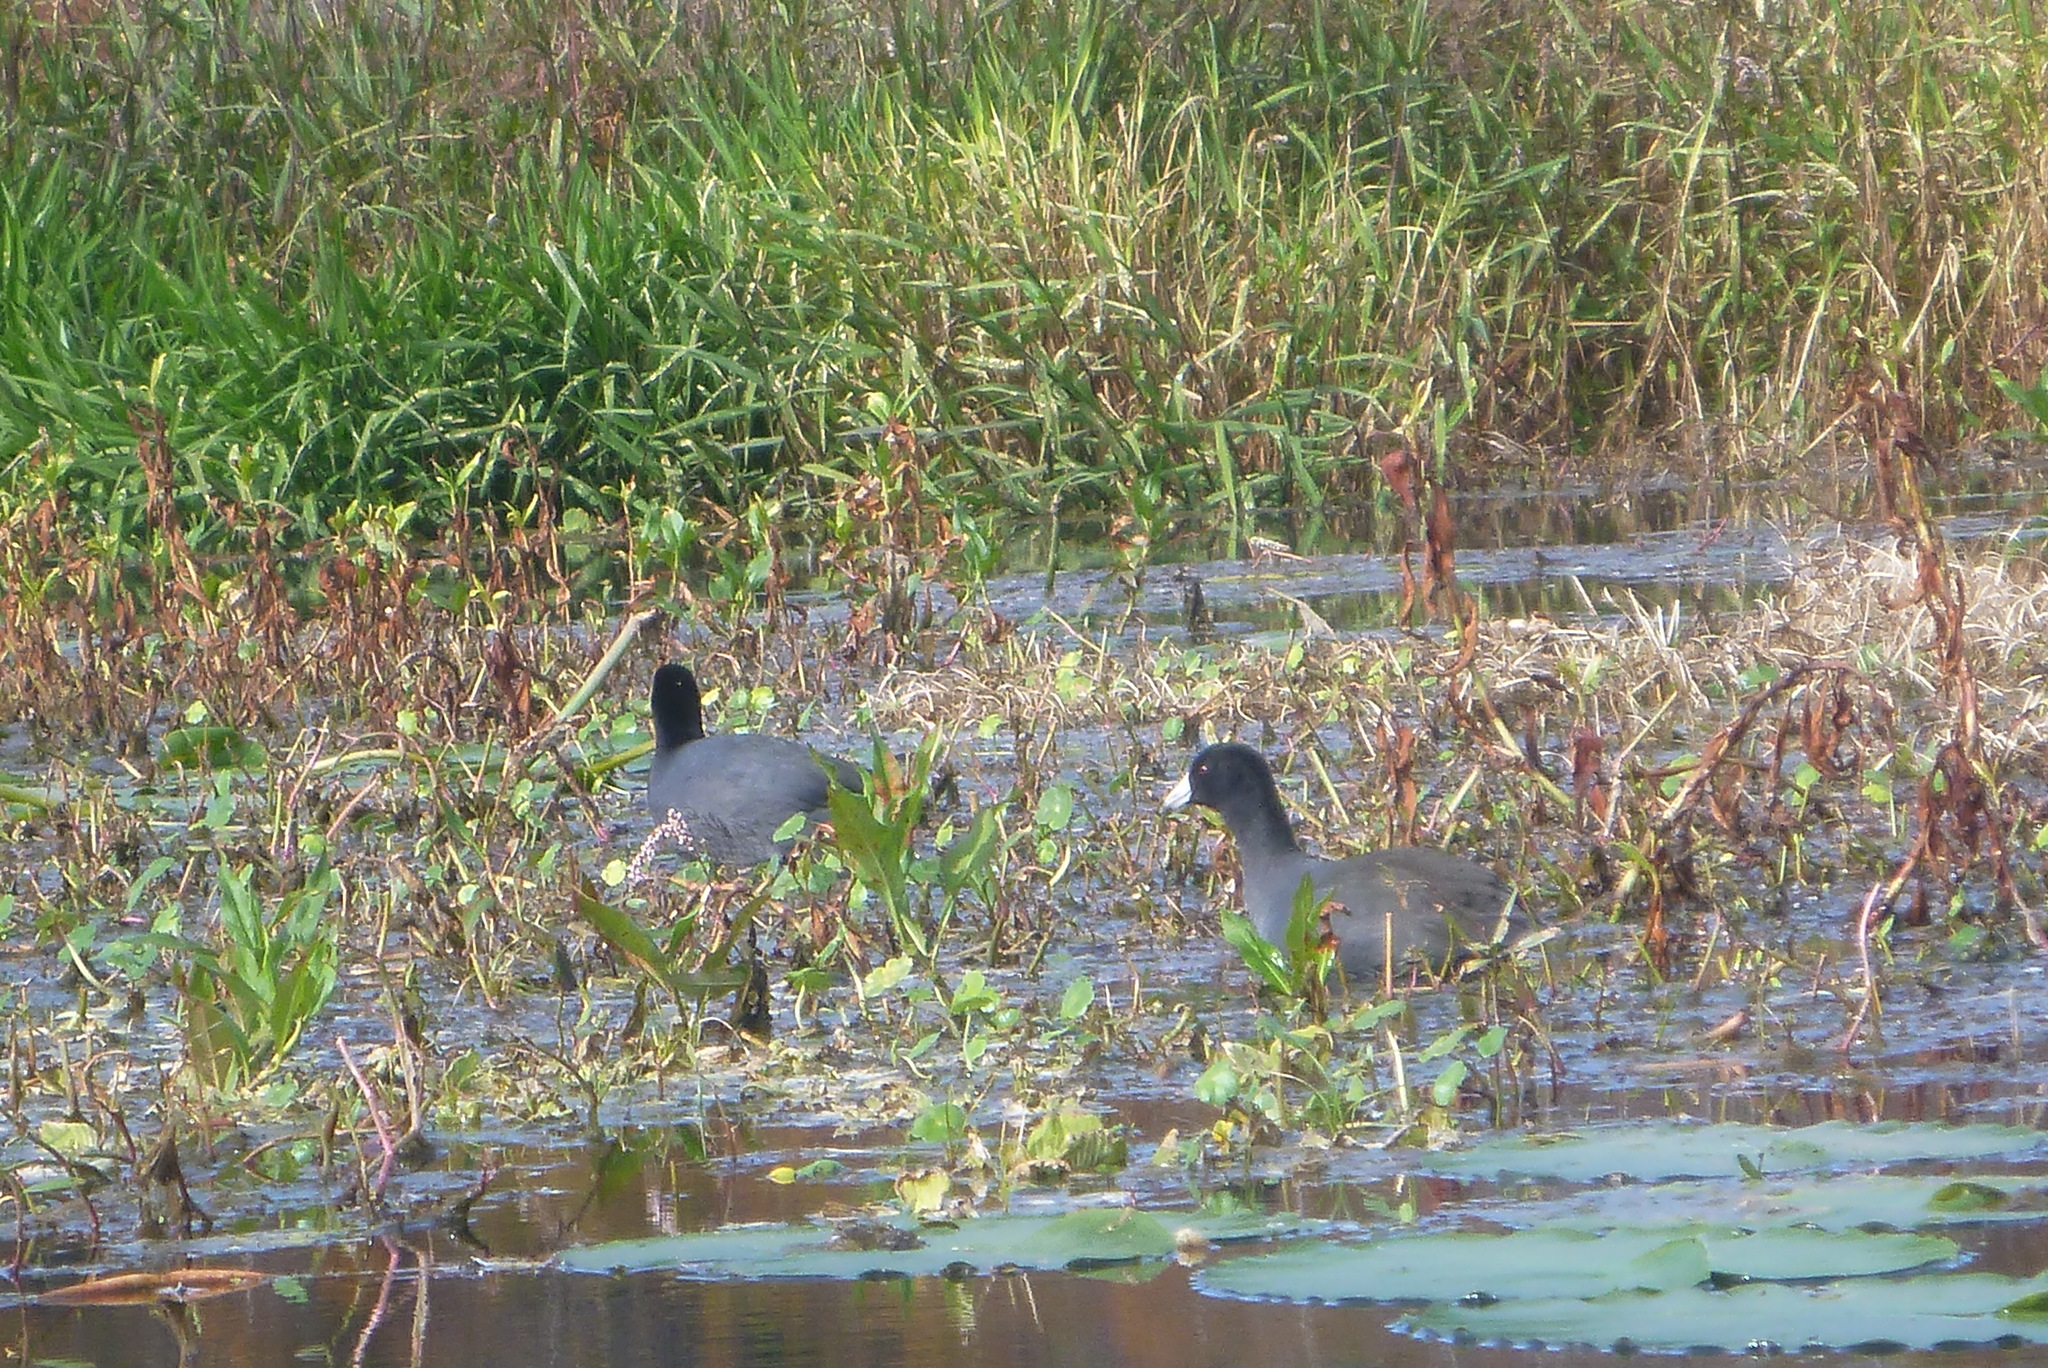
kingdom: Animalia
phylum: Chordata
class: Aves
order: Gruiformes
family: Rallidae
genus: Fulica
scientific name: Fulica americana
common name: American coot
